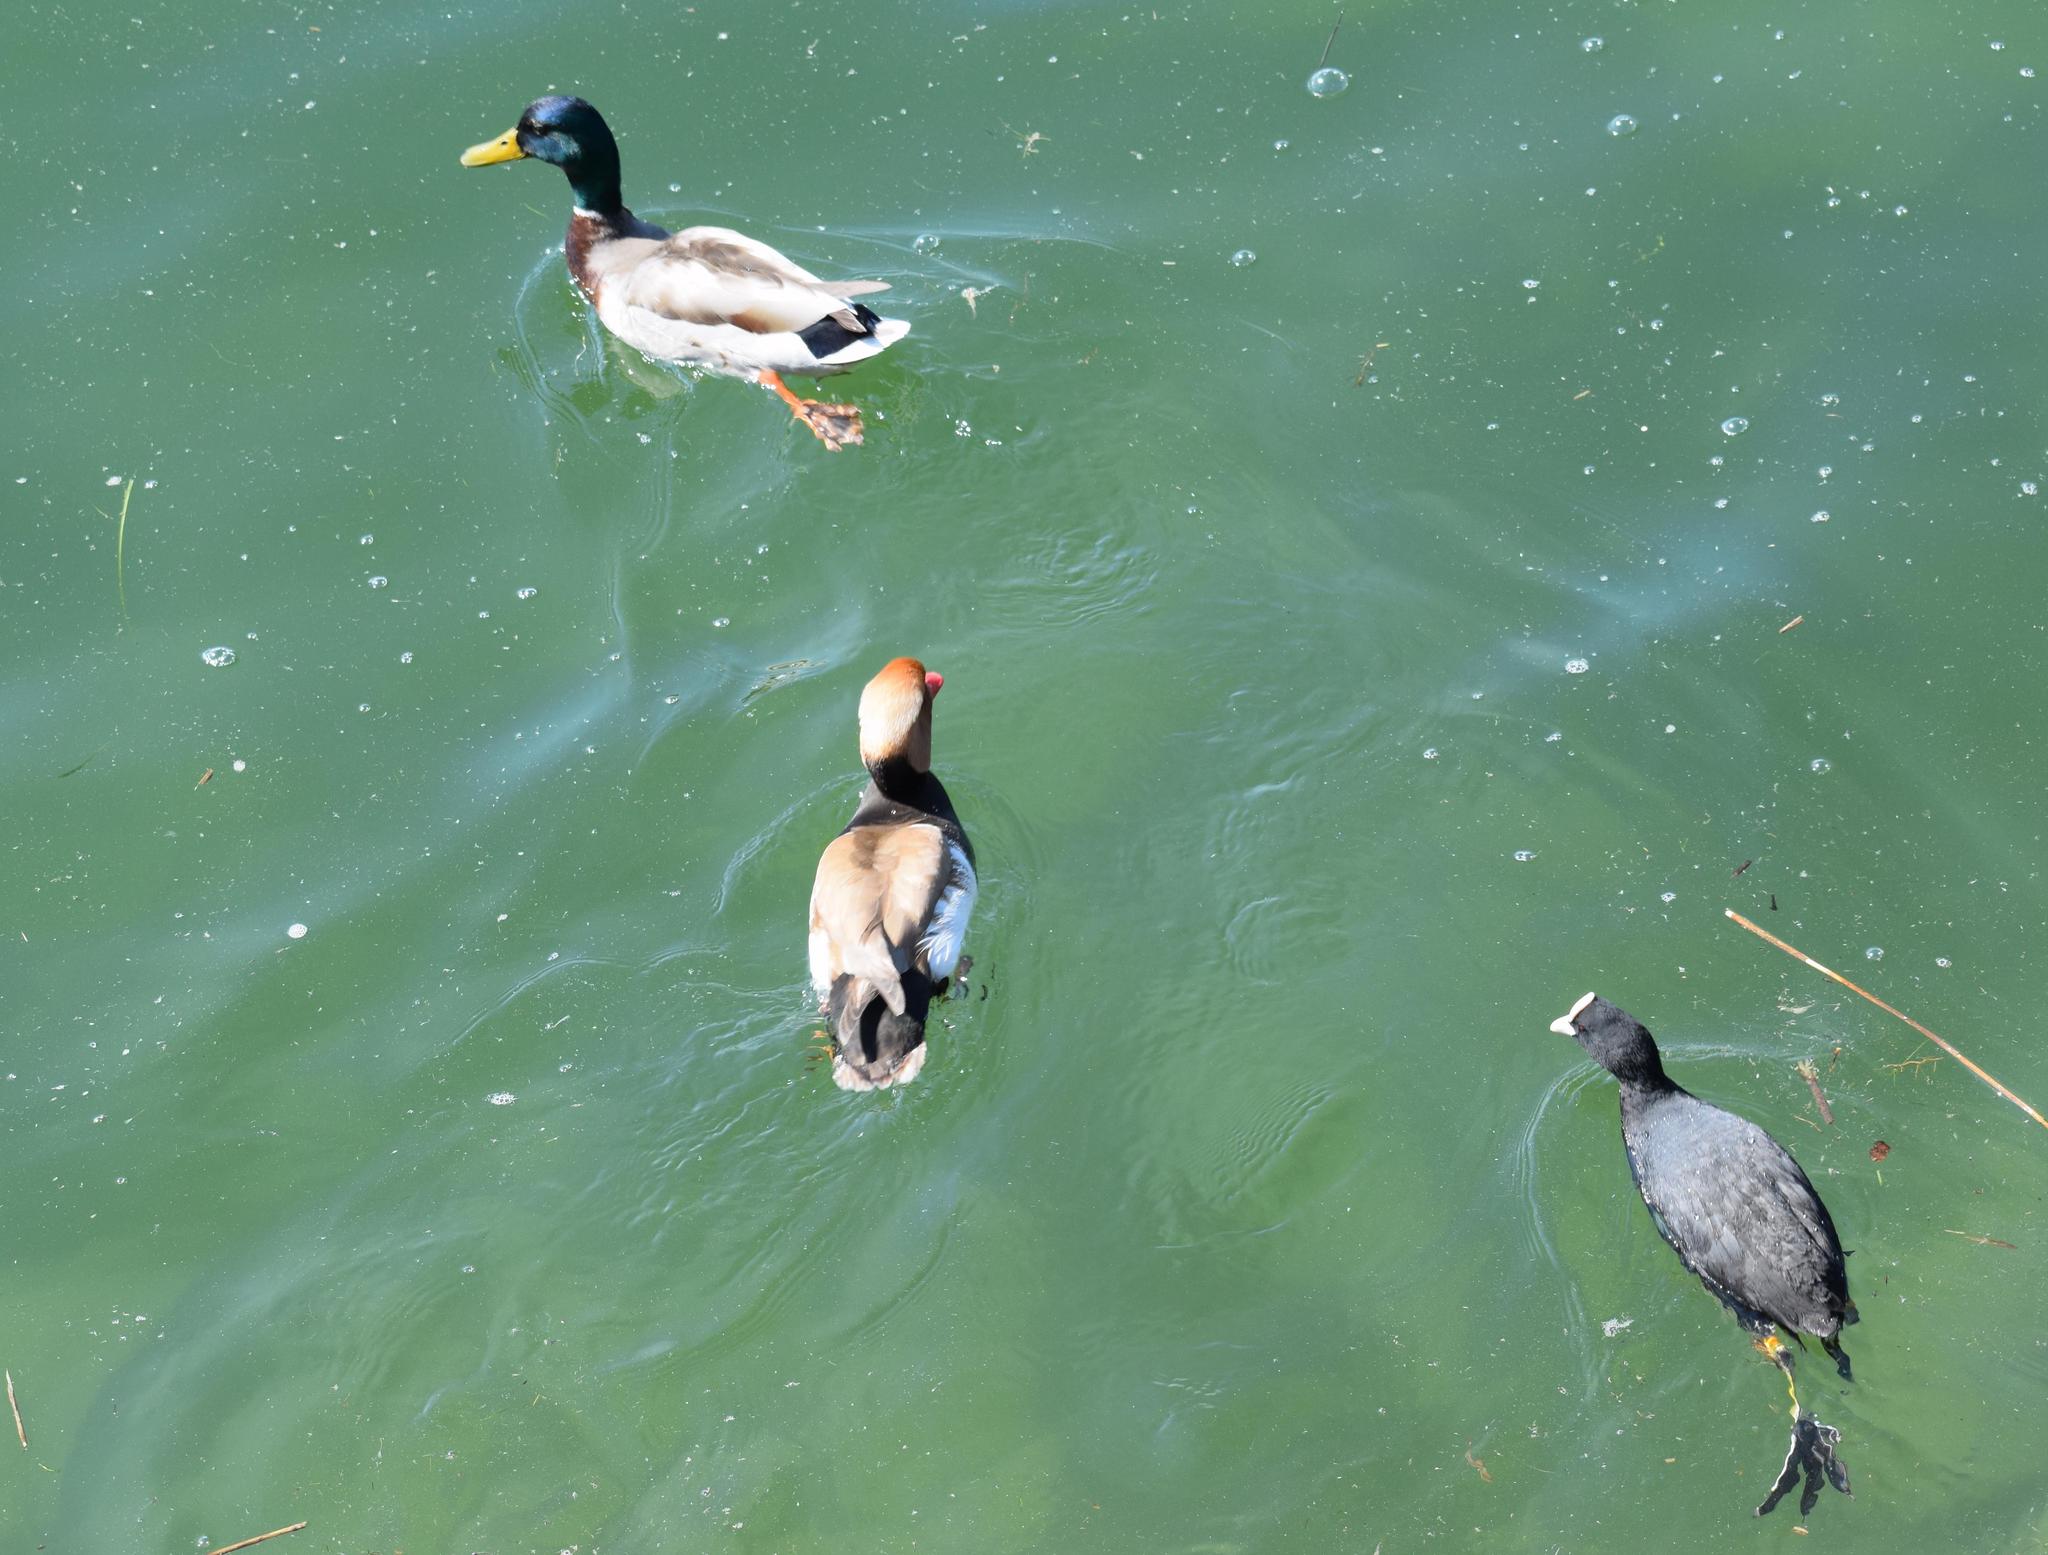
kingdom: Animalia
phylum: Chordata
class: Aves
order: Anseriformes
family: Anatidae
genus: Anas
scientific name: Anas platyrhynchos
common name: Mallard
